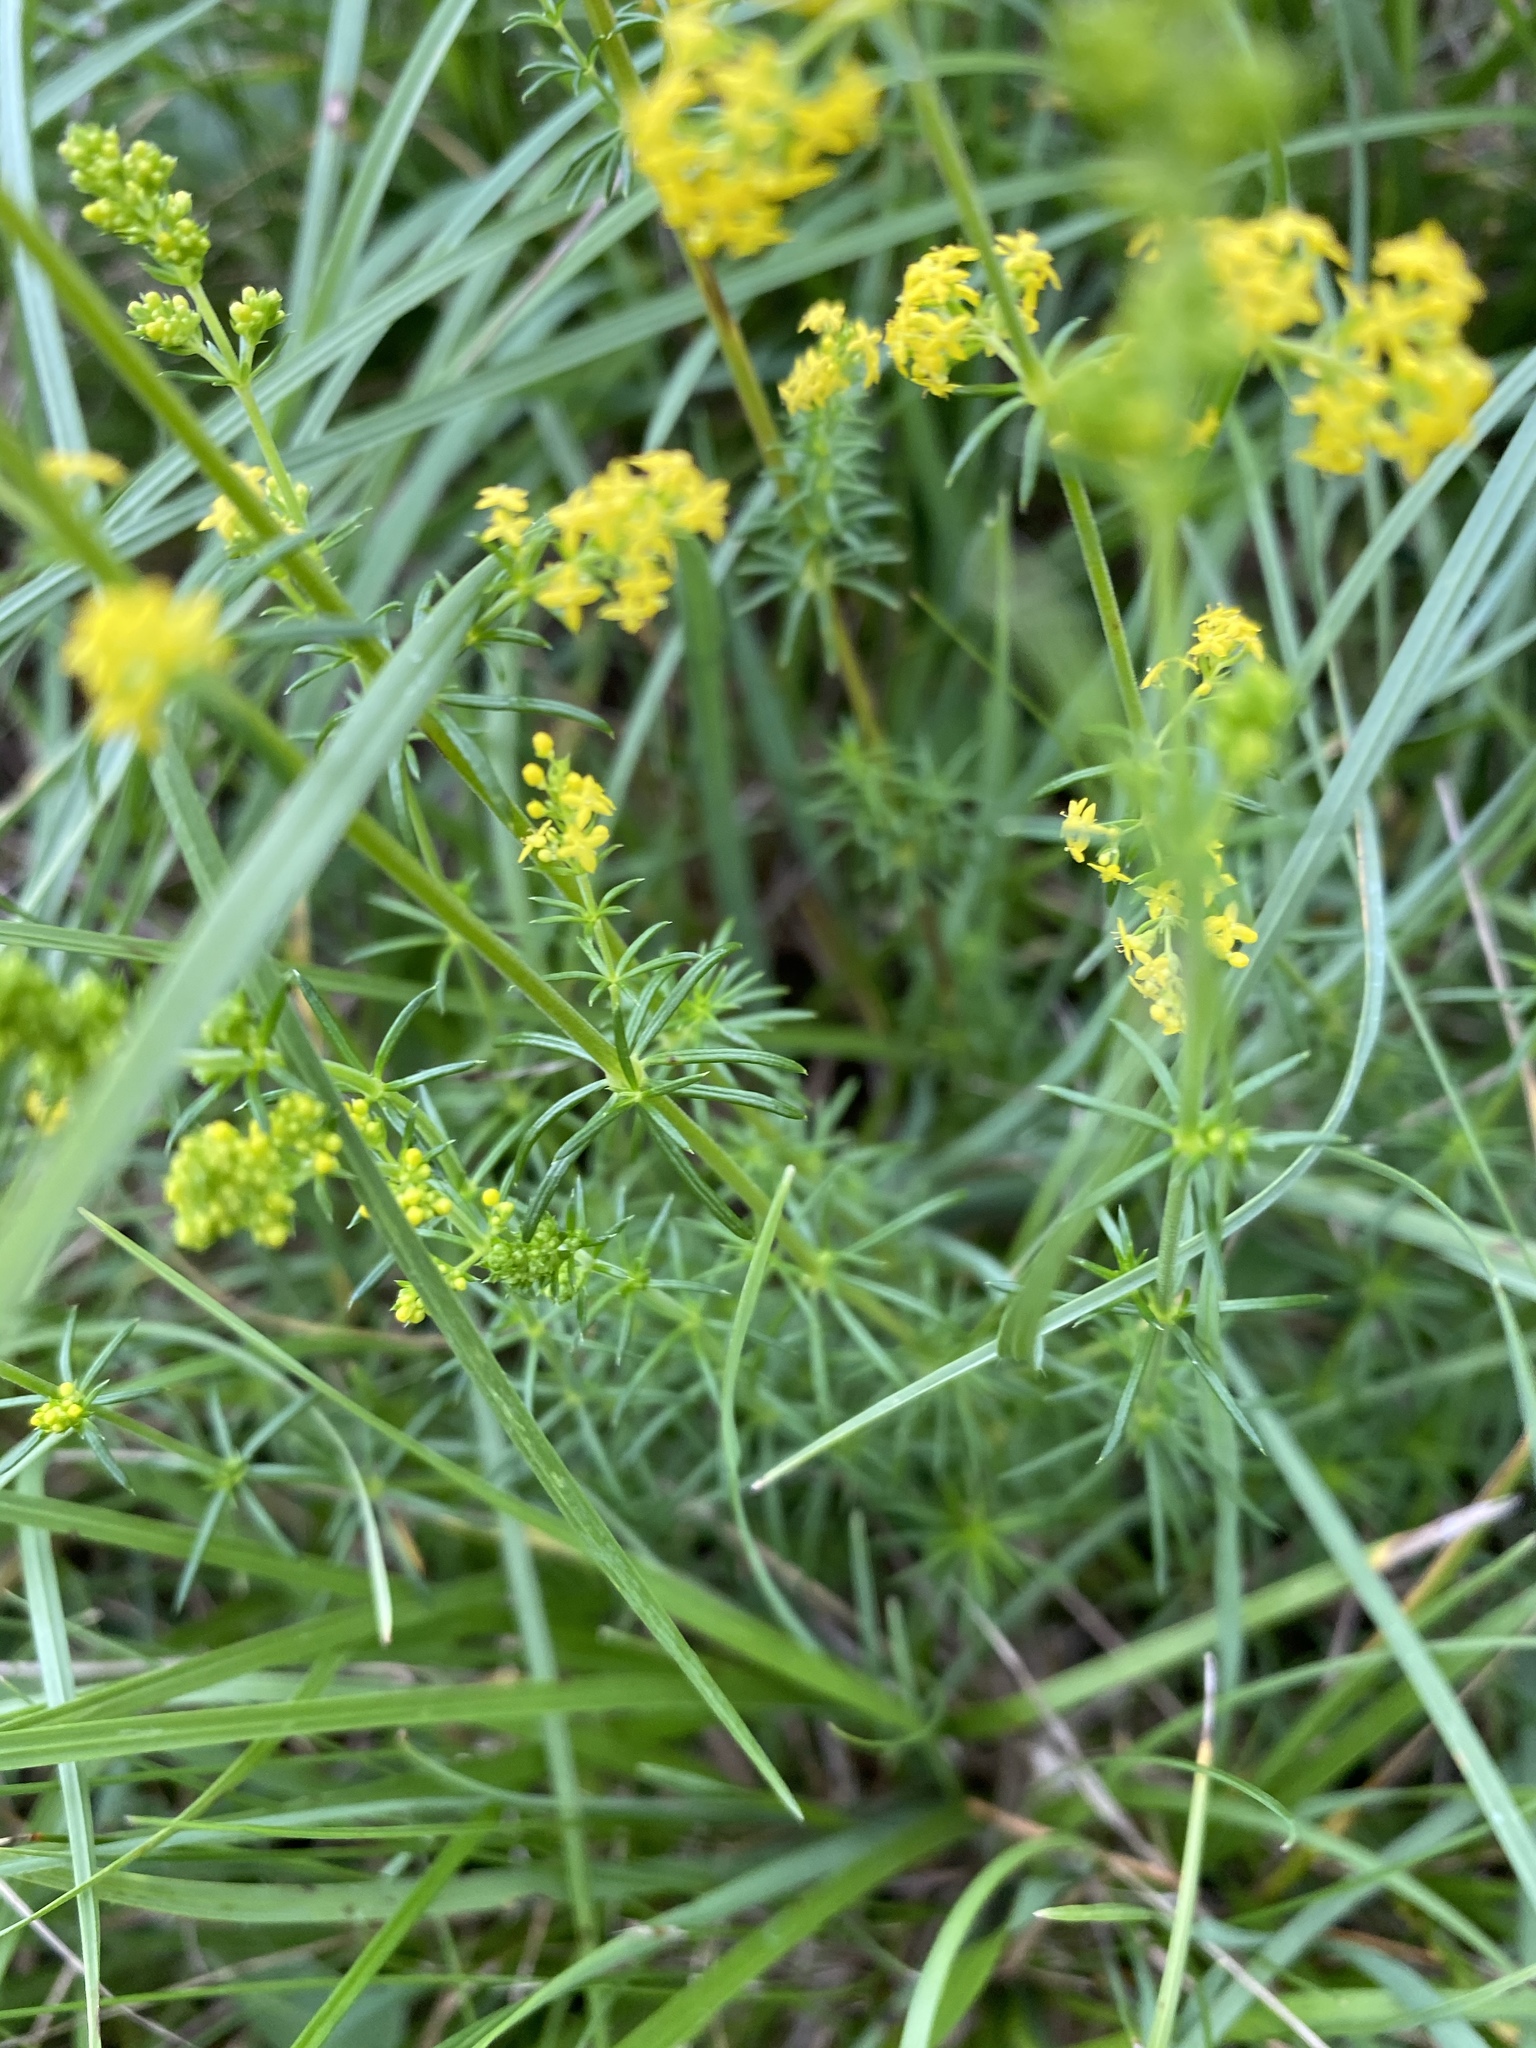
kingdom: Plantae
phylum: Tracheophyta
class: Magnoliopsida
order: Gentianales
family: Rubiaceae
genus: Galium
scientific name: Galium verum
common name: Lady's bedstraw
